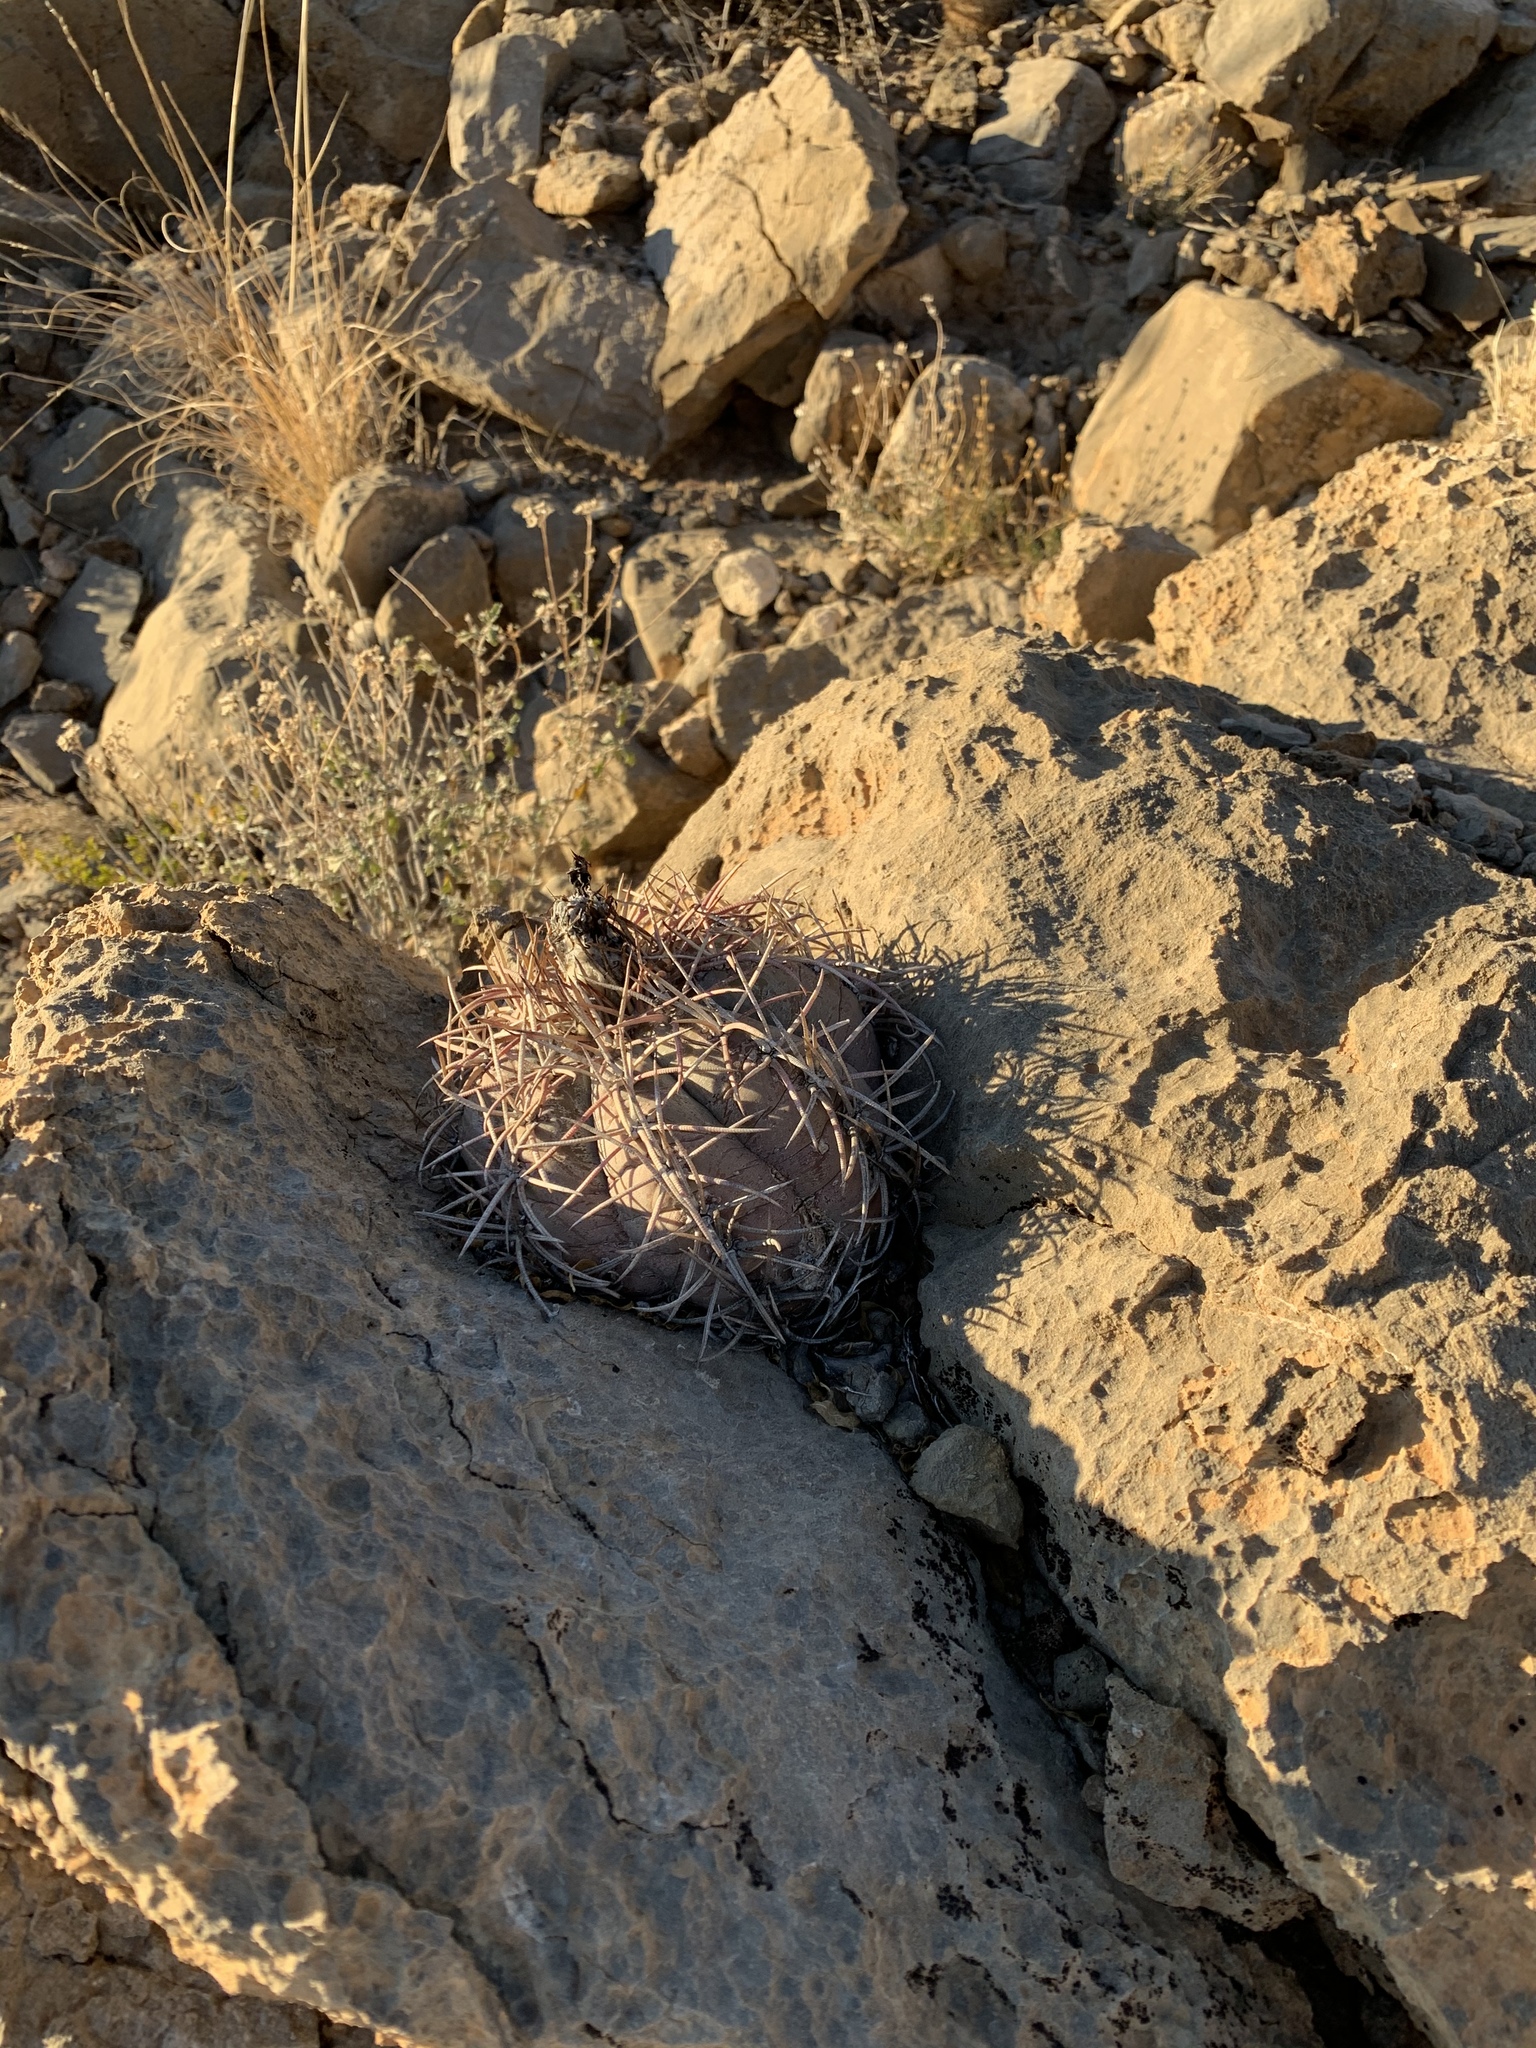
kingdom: Plantae
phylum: Tracheophyta
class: Magnoliopsida
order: Caryophyllales
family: Cactaceae
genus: Echinocactus
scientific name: Echinocactus horizonthalonius
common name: Devilshead
